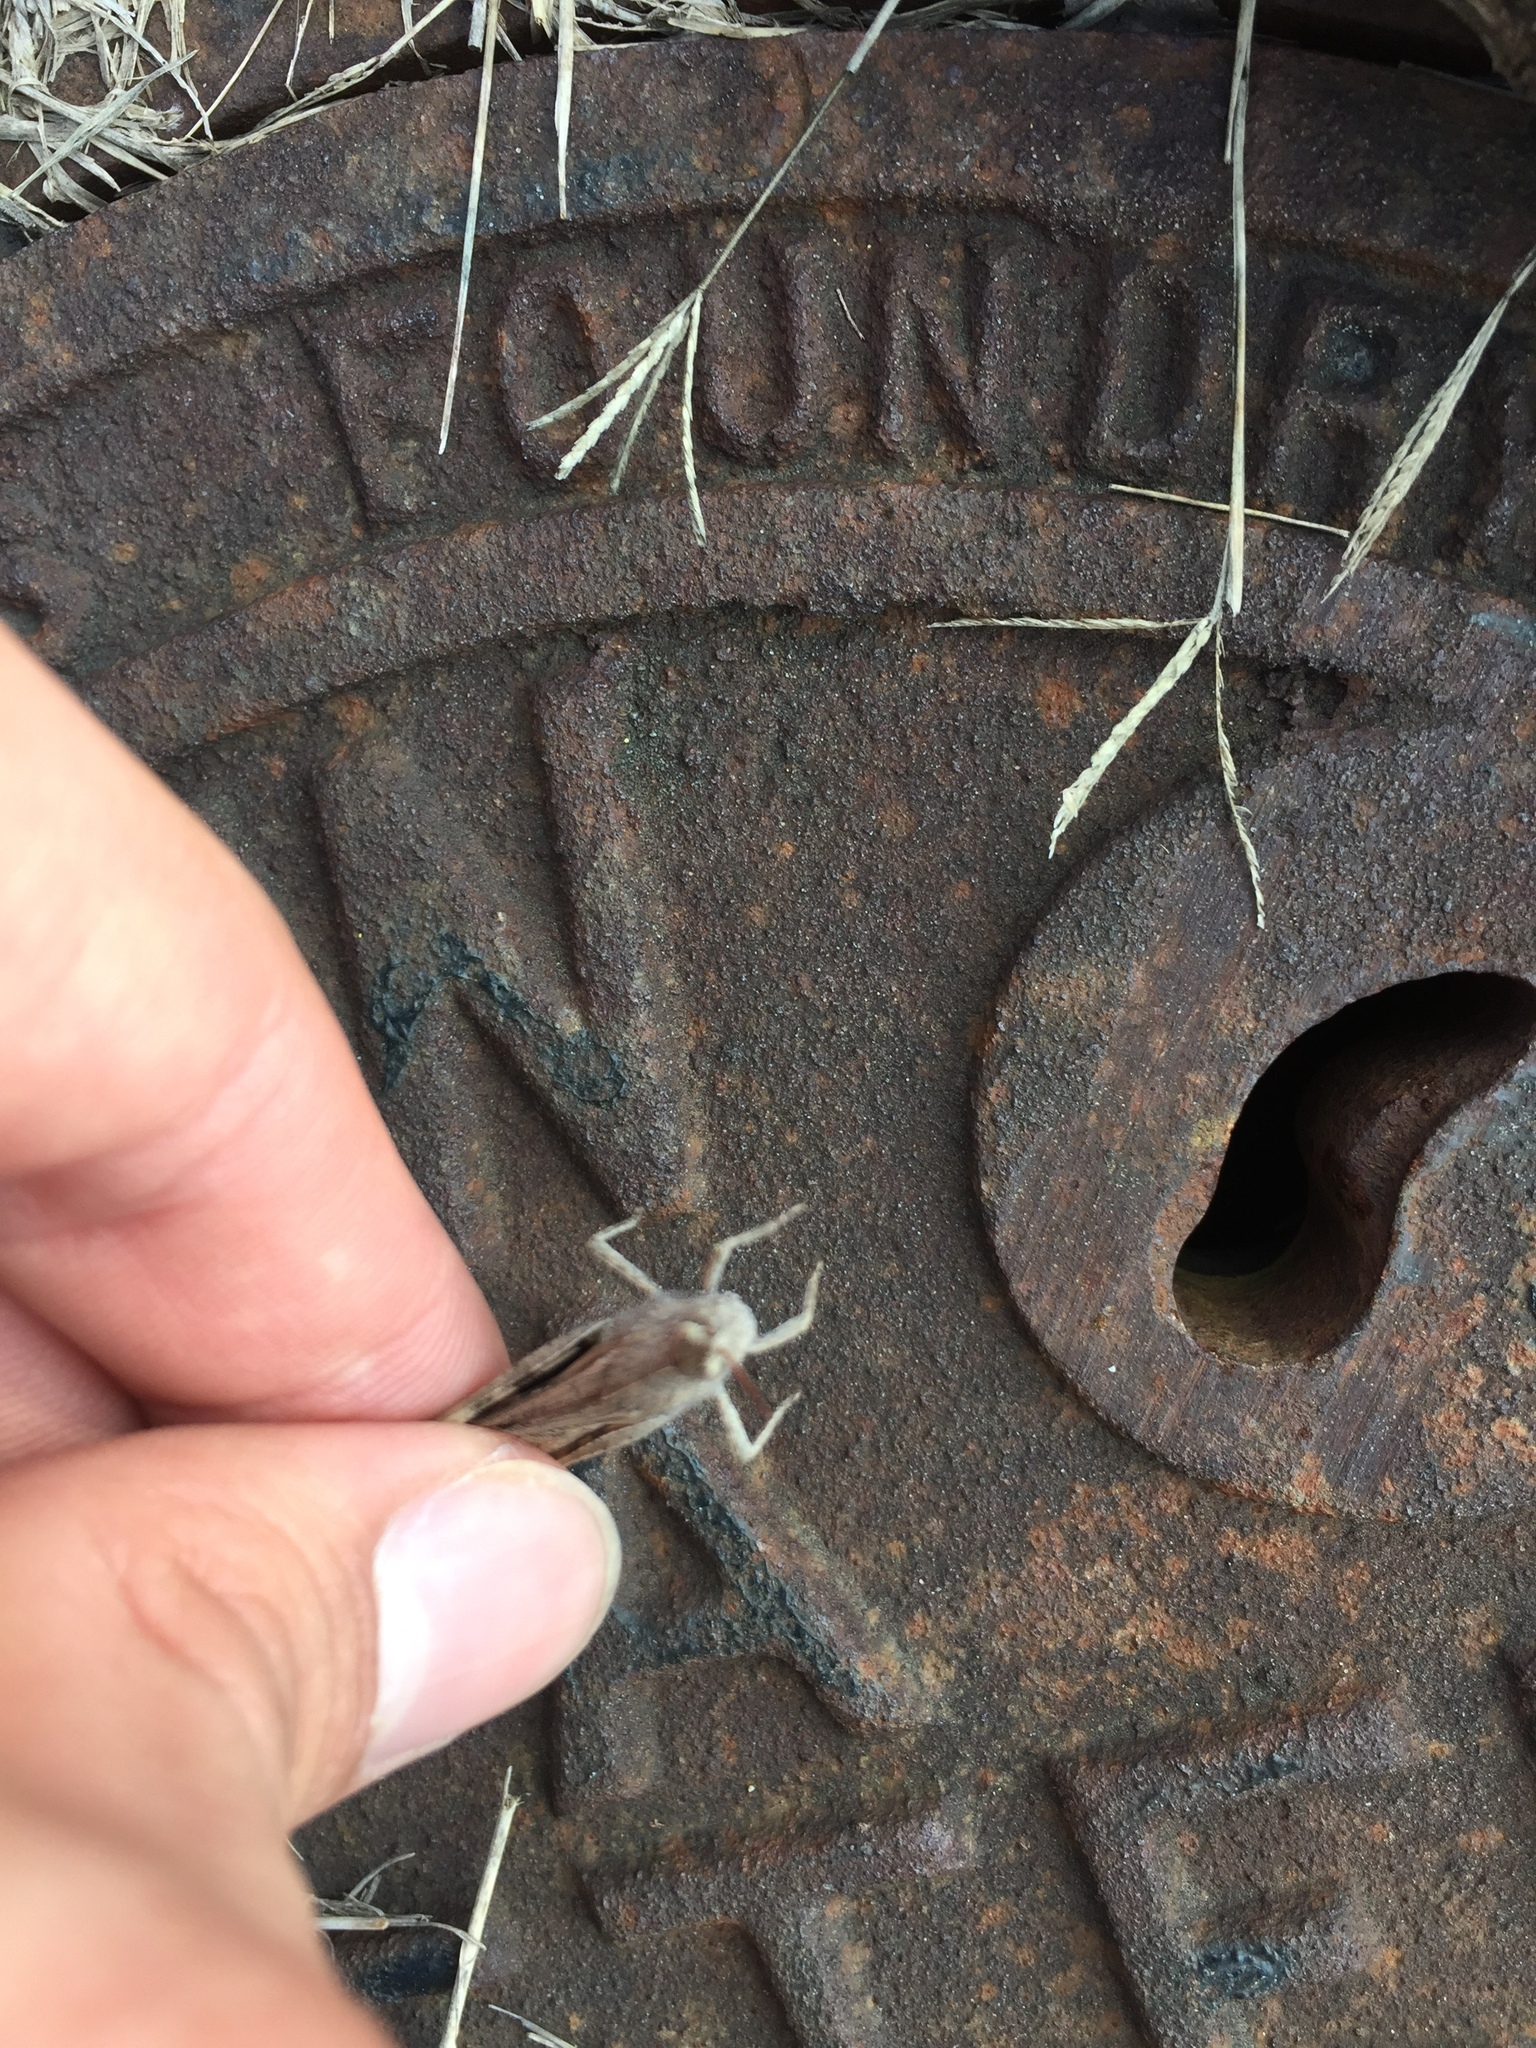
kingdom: Animalia
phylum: Arthropoda
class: Insecta
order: Orthoptera
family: Acrididae
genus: Chortophaga
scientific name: Chortophaga viridifasciata
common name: Green-striped grasshopper
